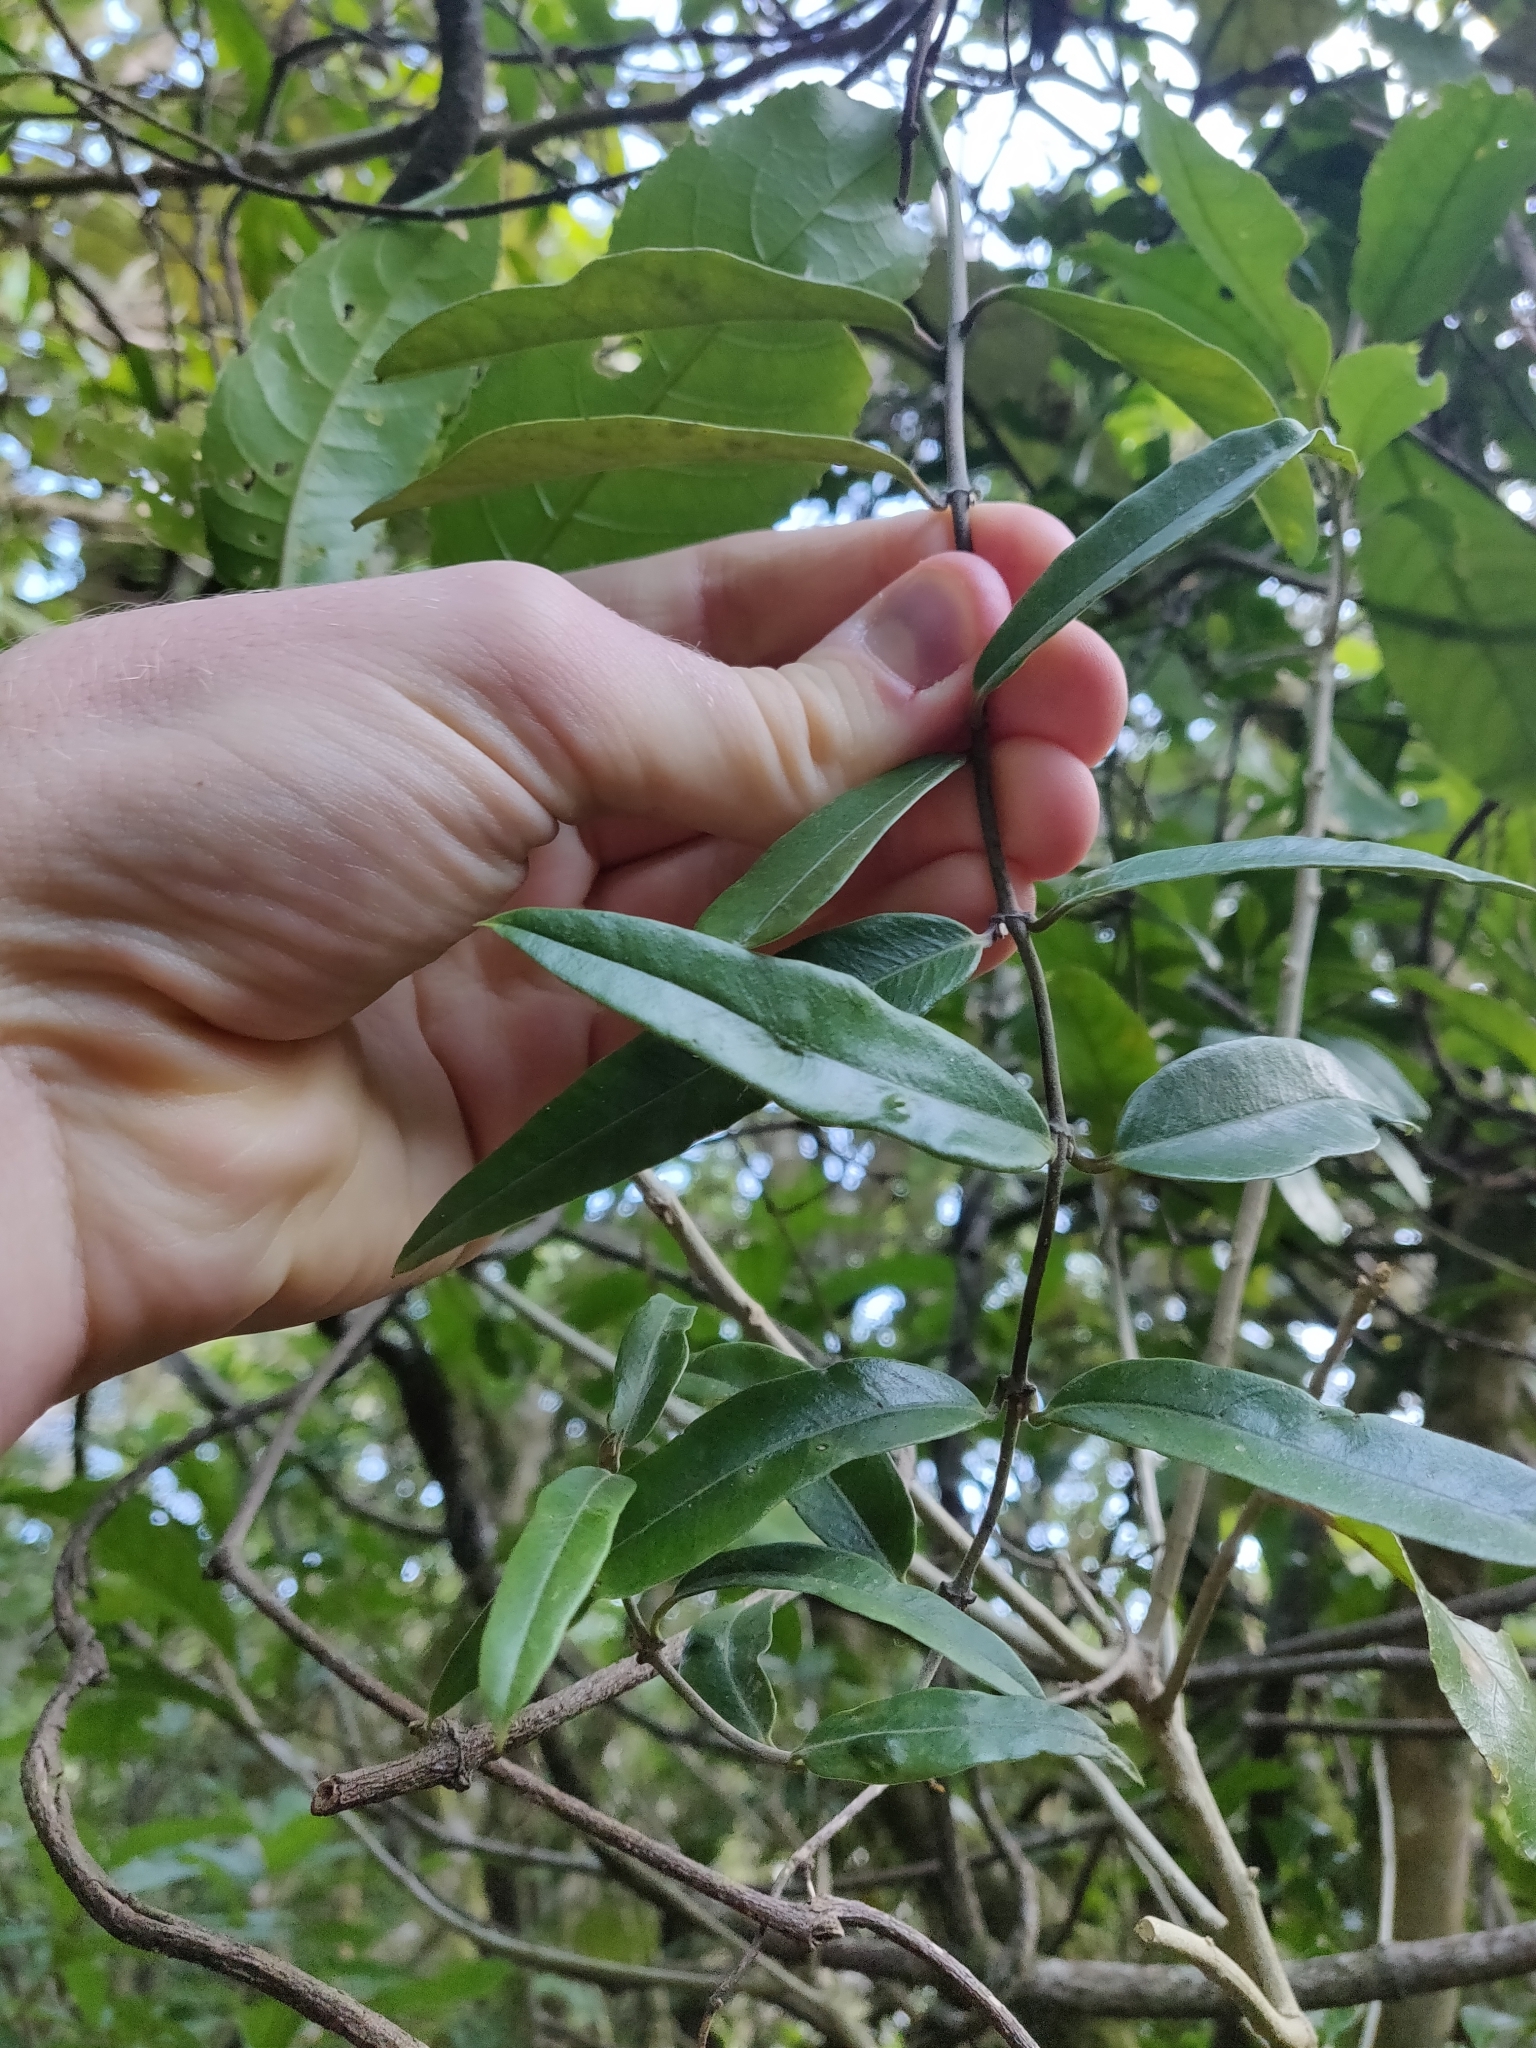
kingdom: Plantae
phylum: Tracheophyta
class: Magnoliopsida
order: Gentianales
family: Apocynaceae
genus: Parsonsia
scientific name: Parsonsia heterophylla
